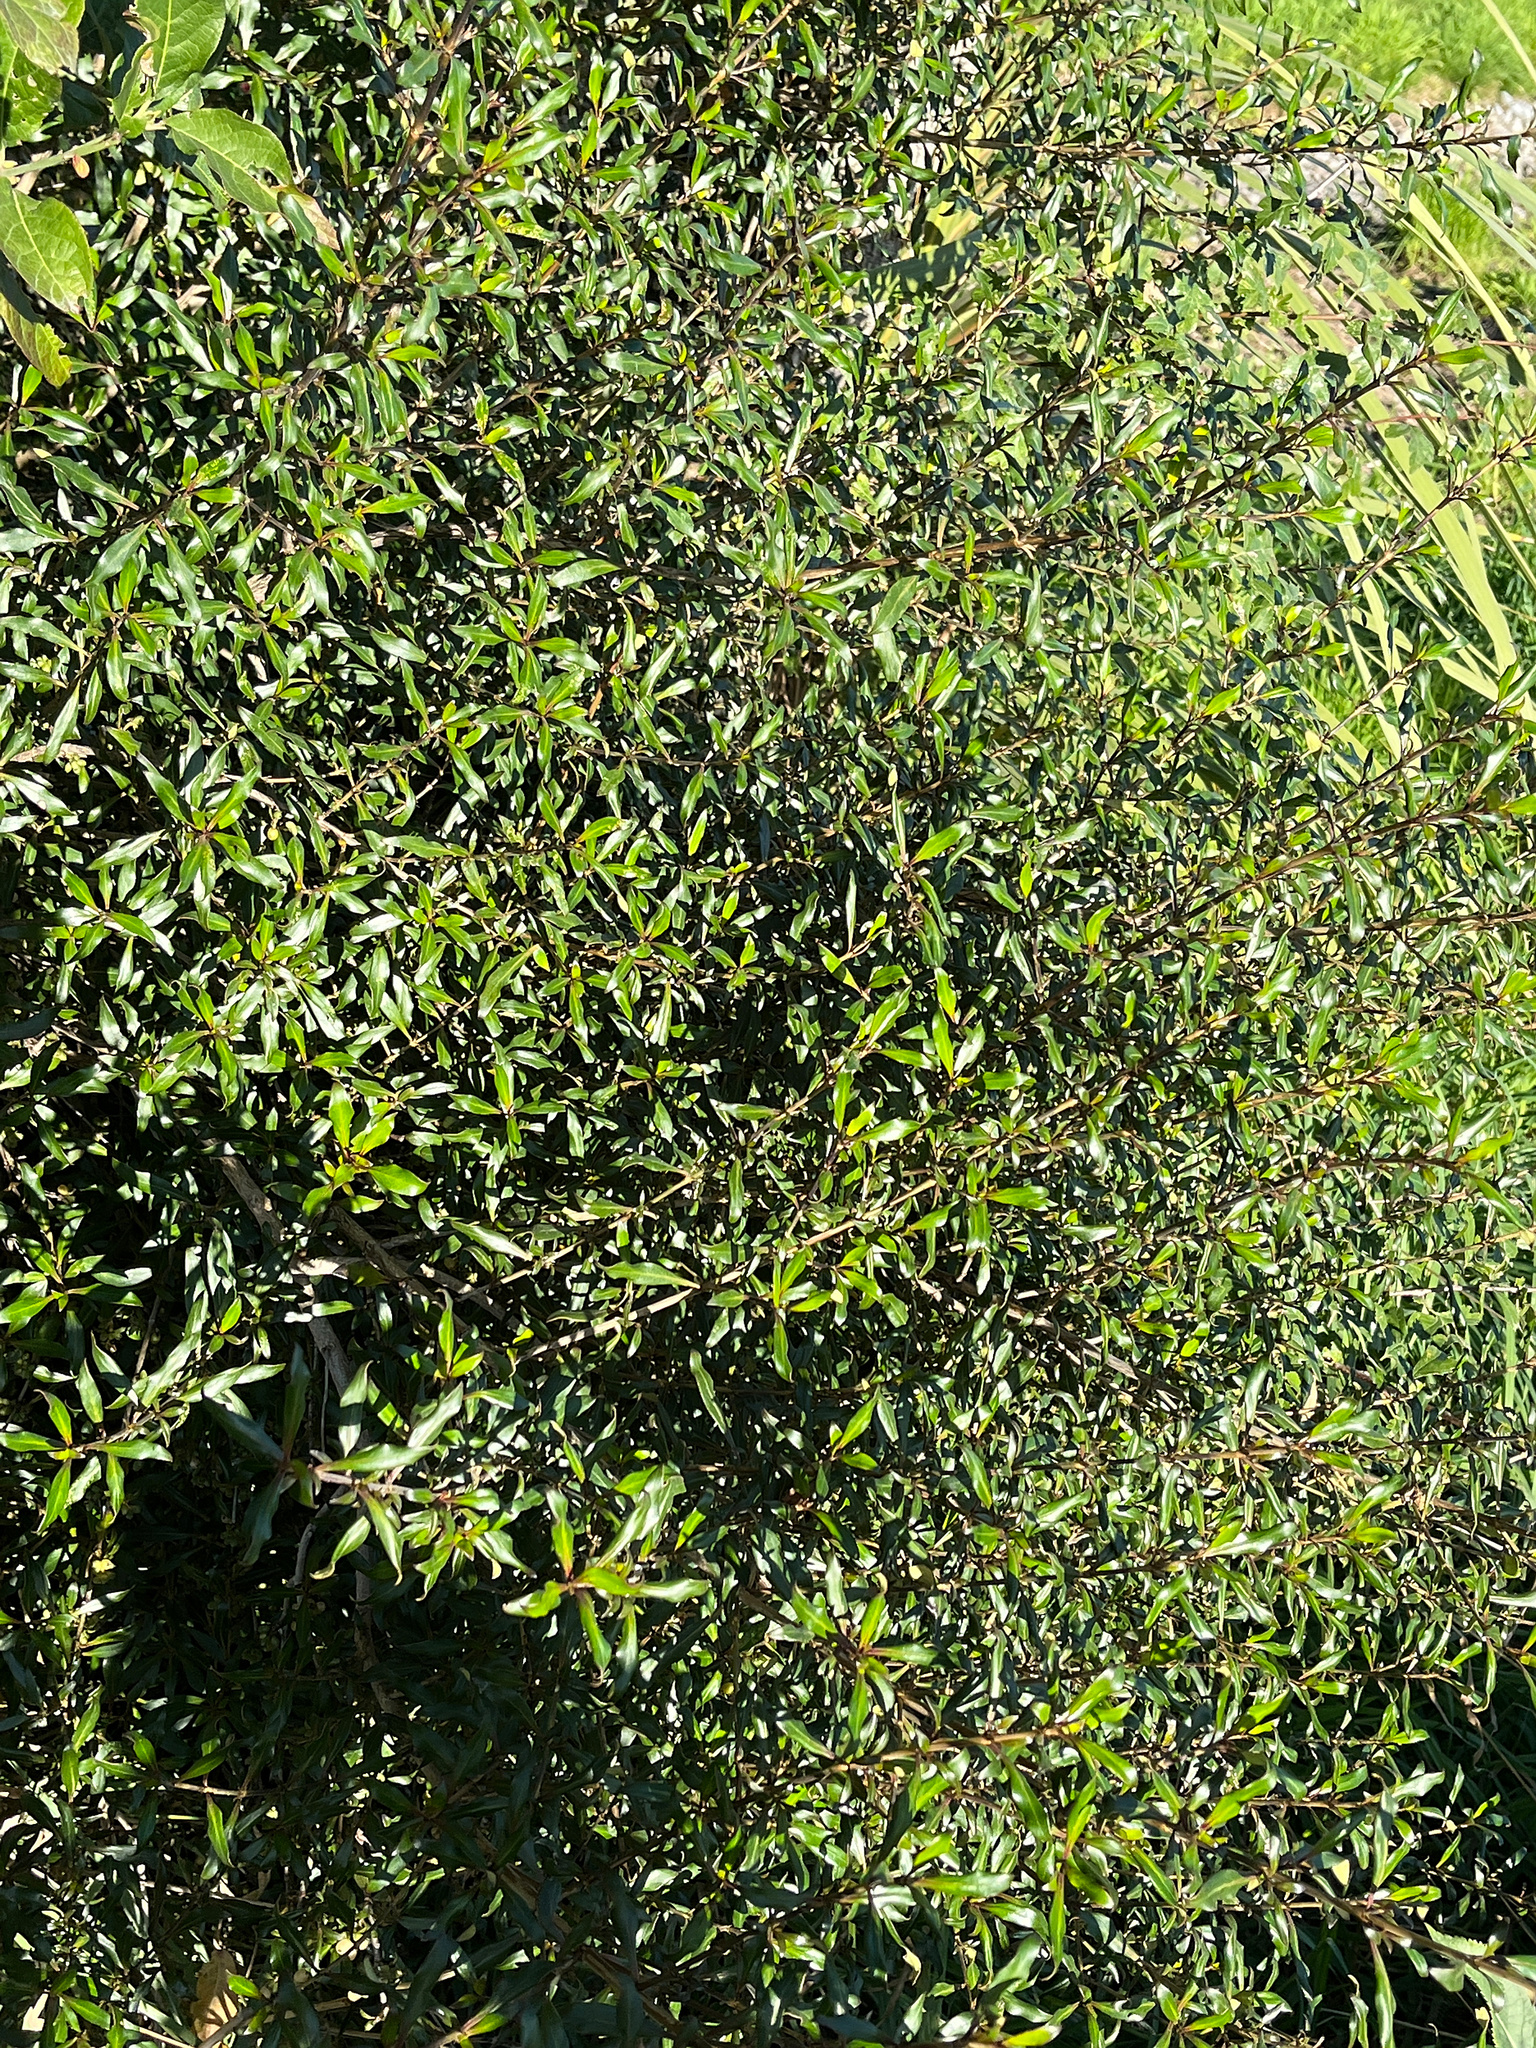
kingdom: Plantae
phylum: Tracheophyta
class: Magnoliopsida
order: Gentianales
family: Rubiaceae
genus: Coprosma
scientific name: Coprosma cunninghamii
